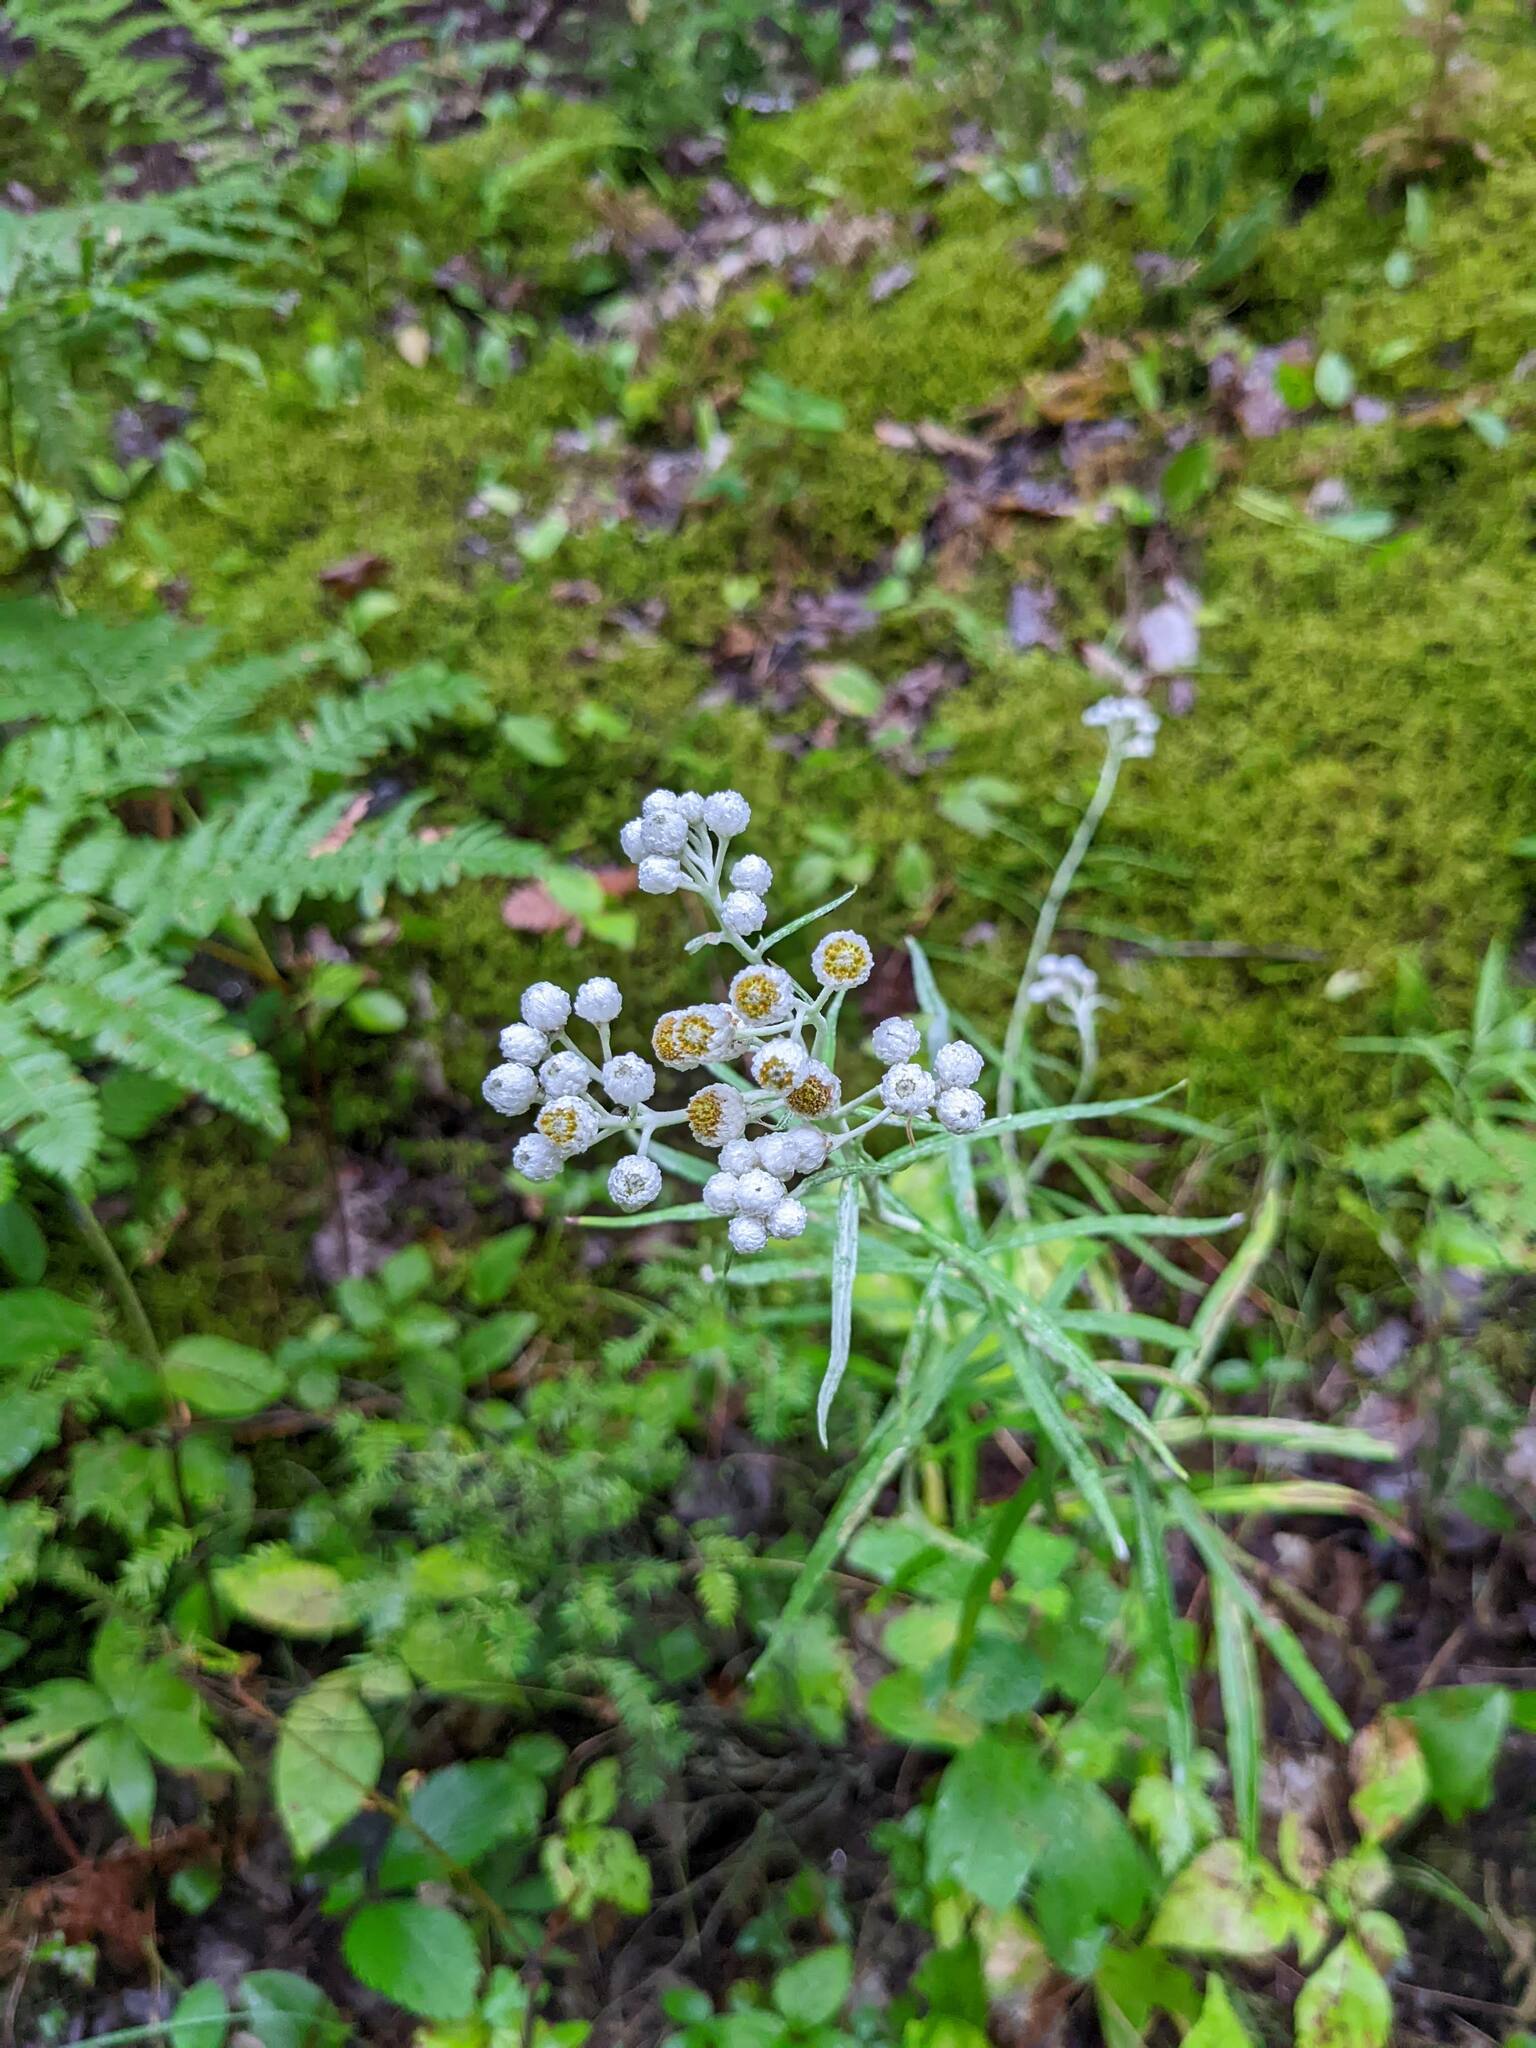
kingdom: Plantae
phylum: Tracheophyta
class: Magnoliopsida
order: Asterales
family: Asteraceae
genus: Anaphalis
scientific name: Anaphalis margaritacea
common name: Pearly everlasting
